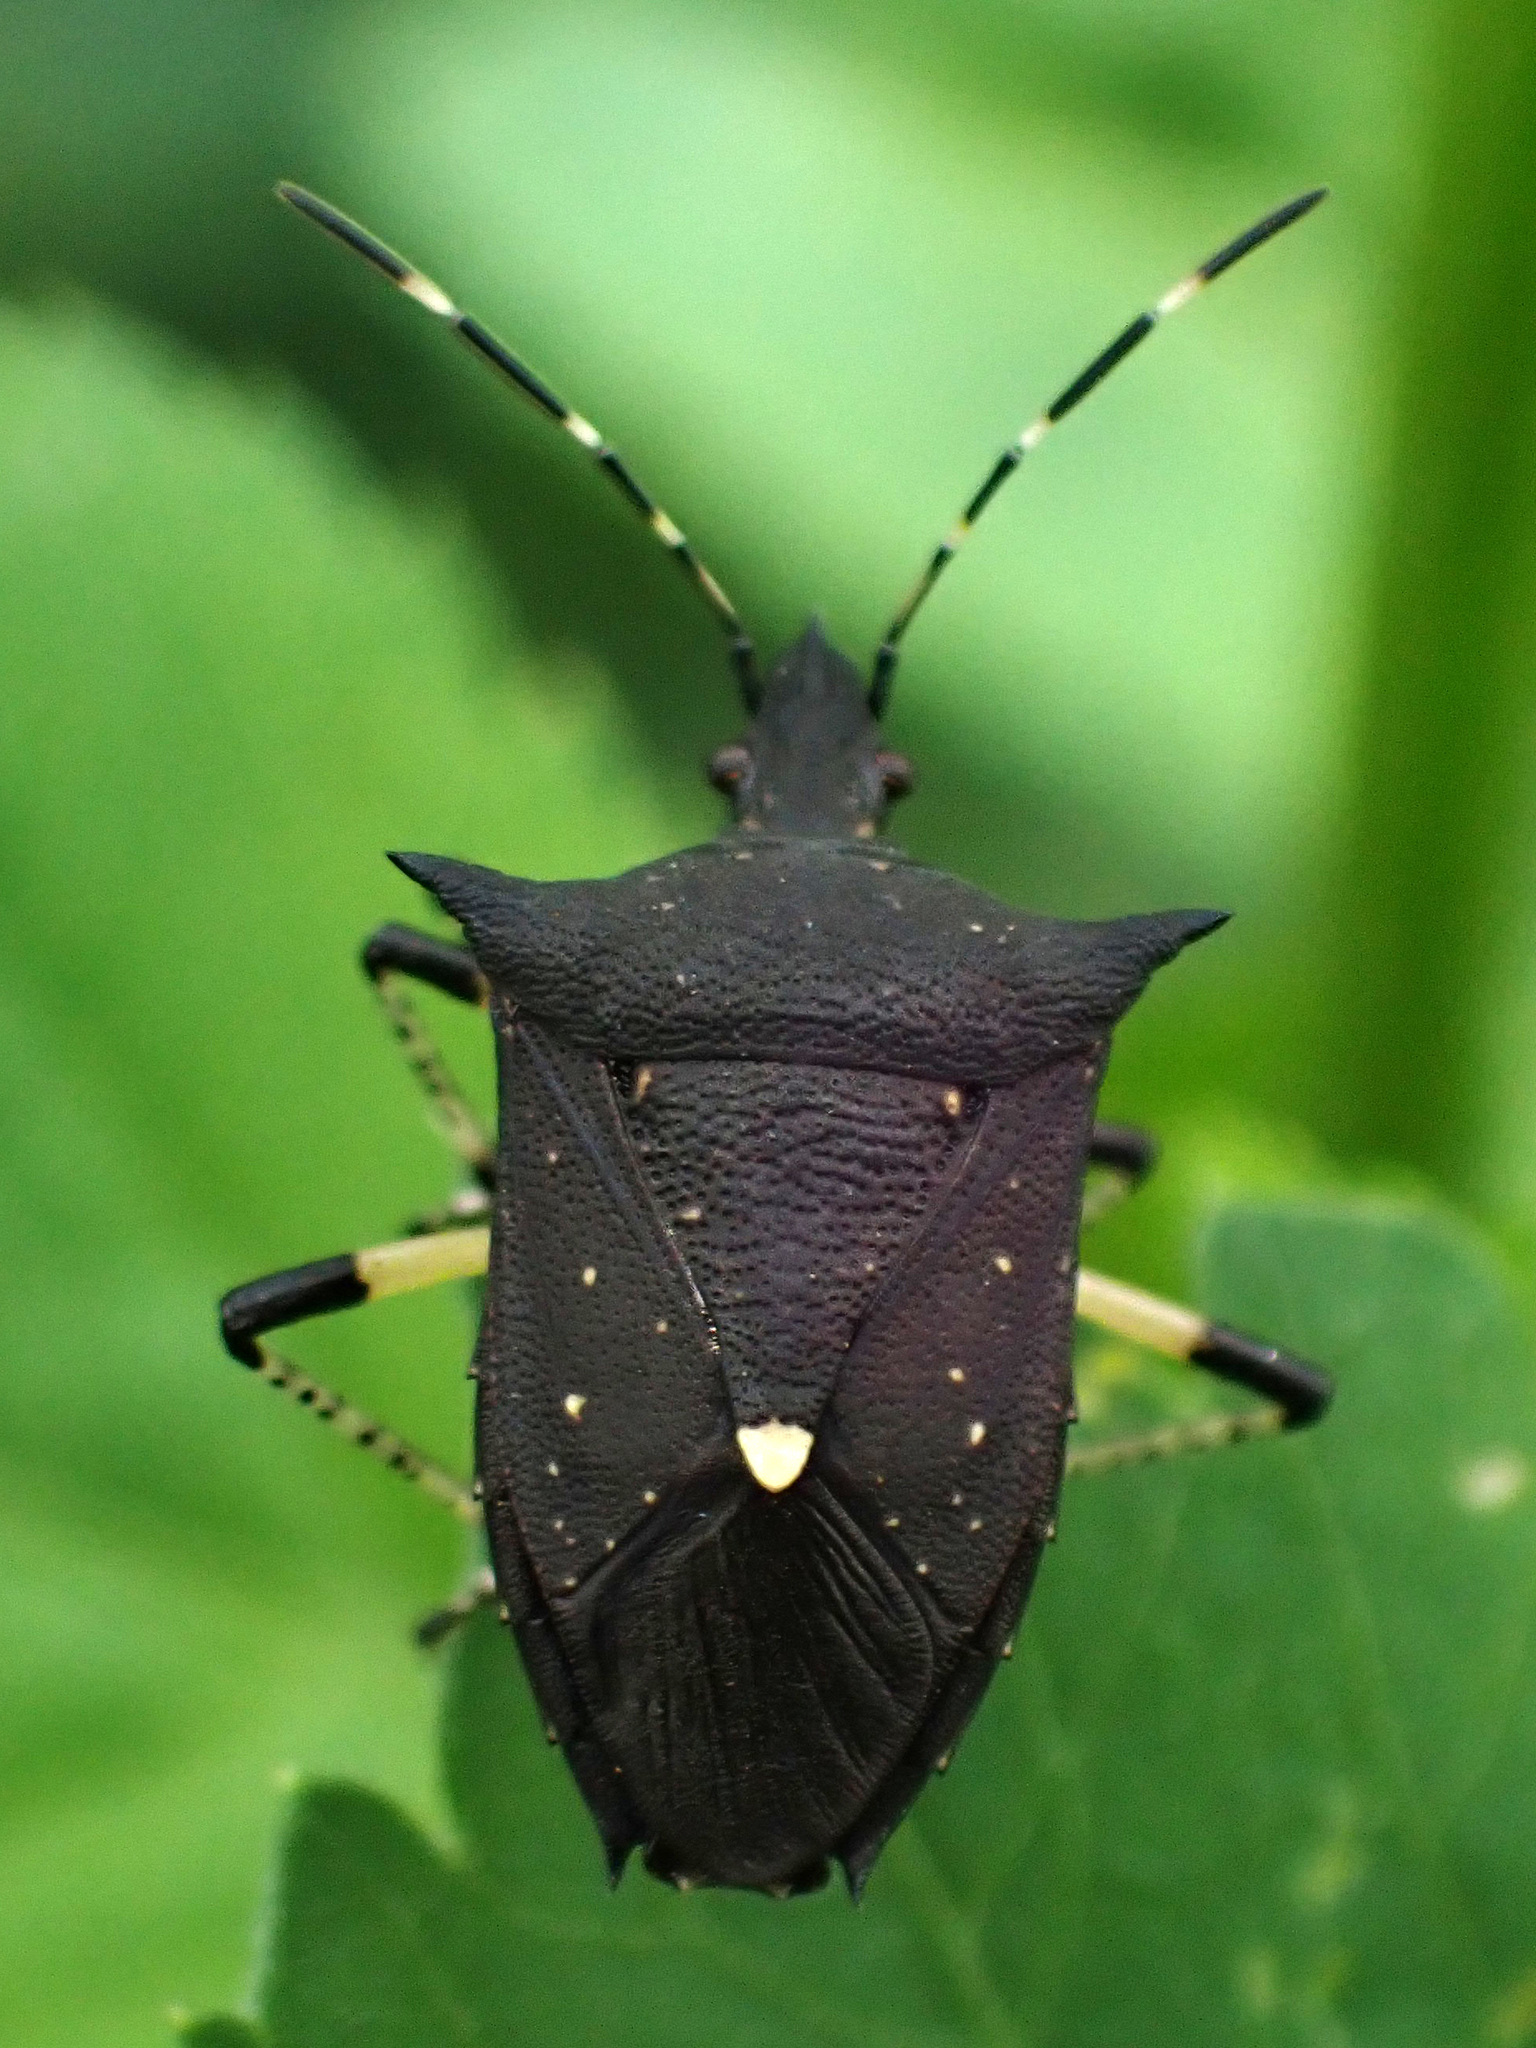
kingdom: Animalia
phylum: Arthropoda
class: Insecta
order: Hemiptera
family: Pentatomidae
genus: Proxys
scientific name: Proxys punctulatus
